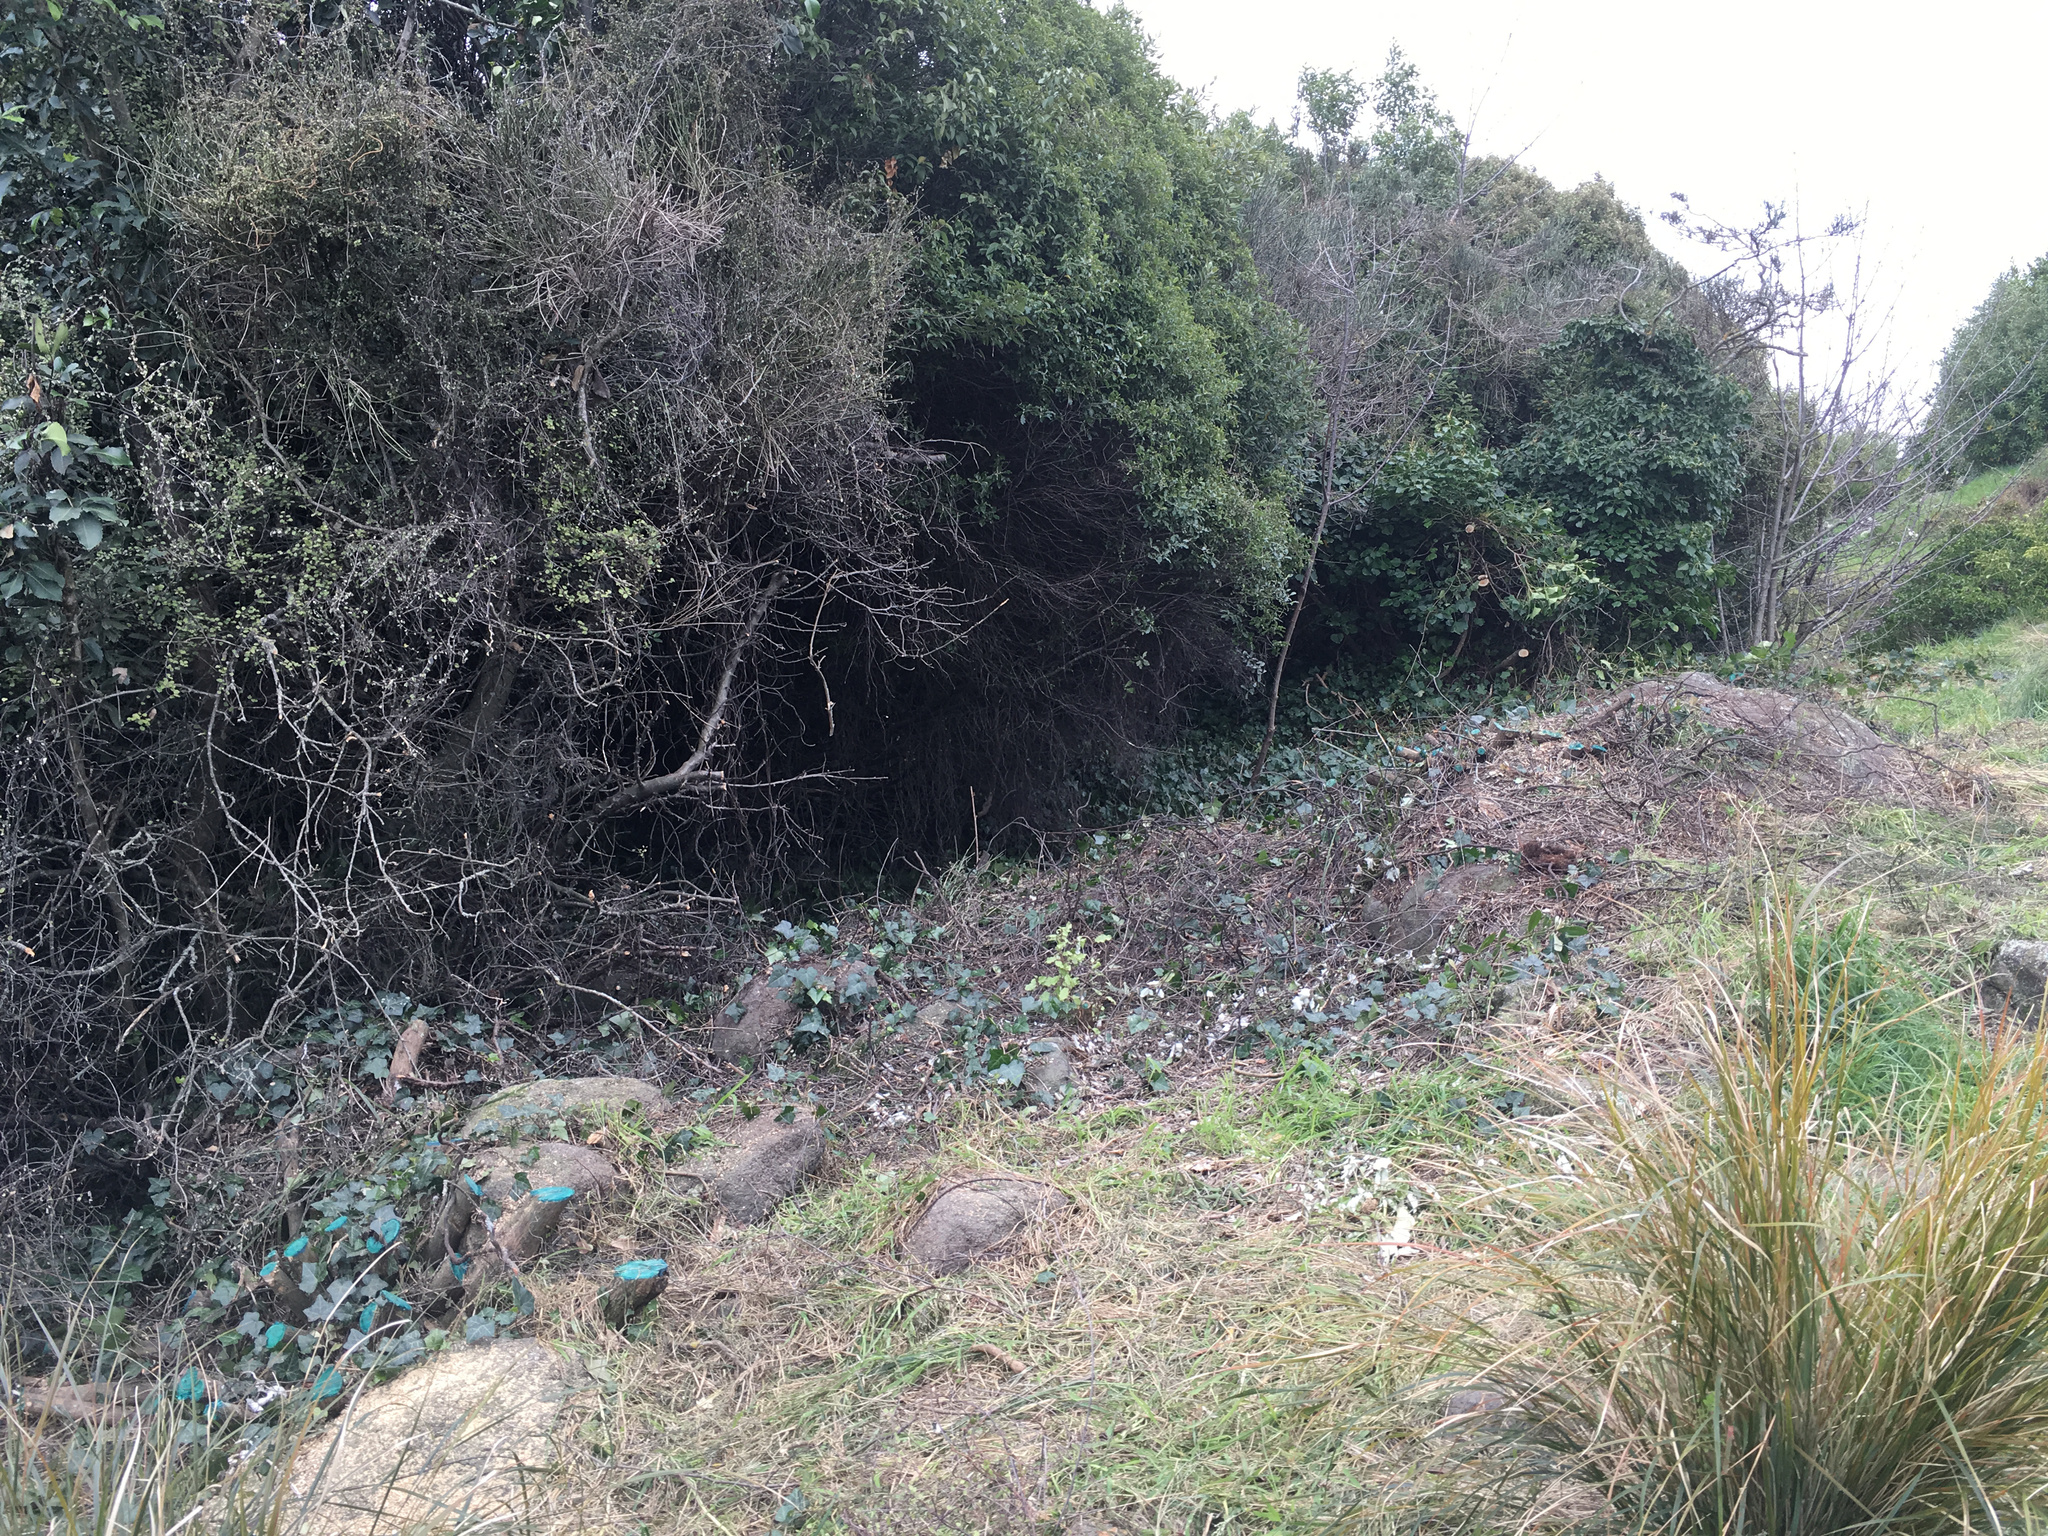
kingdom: Plantae
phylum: Tracheophyta
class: Magnoliopsida
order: Fabales
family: Fabaceae
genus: Spartium
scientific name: Spartium junceum
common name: Spanish broom
